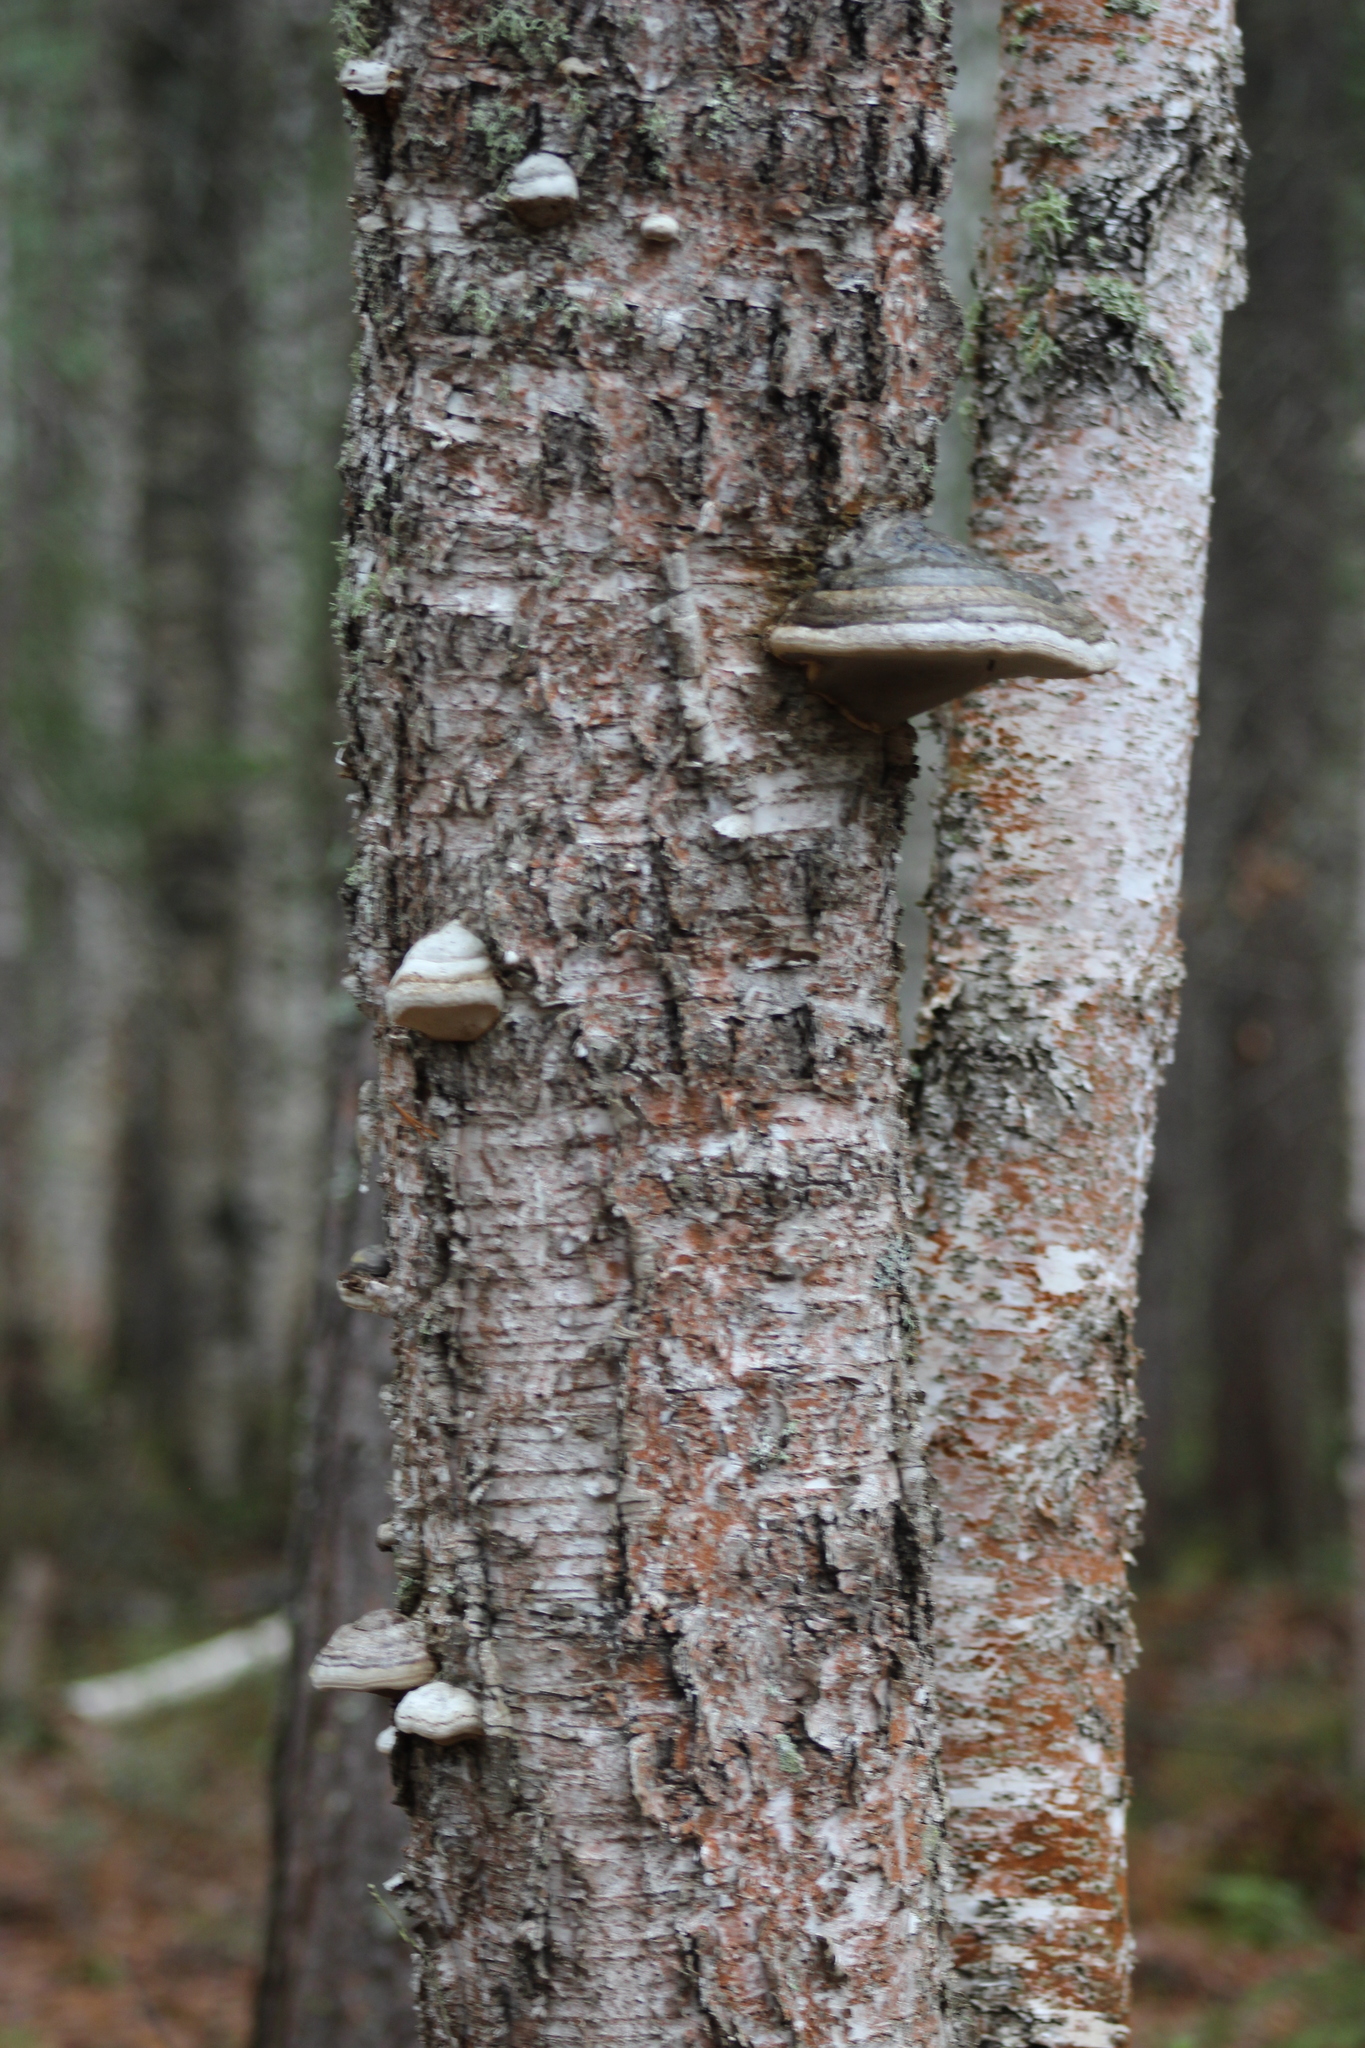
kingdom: Fungi
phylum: Basidiomycota
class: Agaricomycetes
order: Polyporales
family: Polyporaceae
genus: Fomes
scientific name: Fomes fomentarius
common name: Hoof fungus
